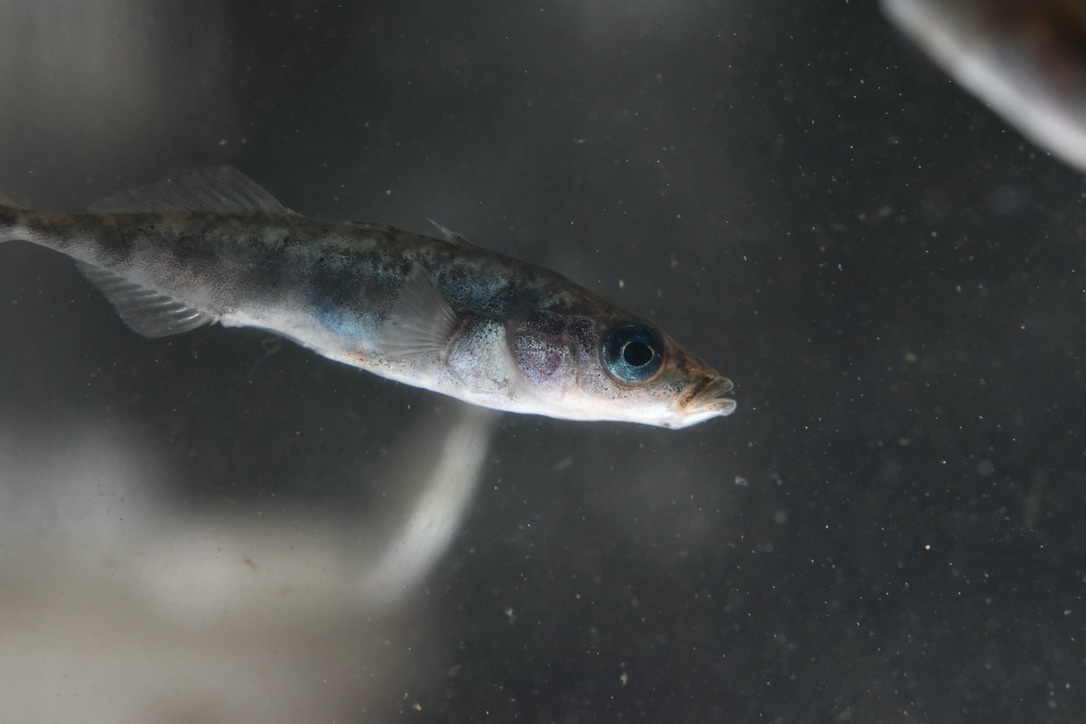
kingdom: Animalia
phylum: Chordata
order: Gasterosteiformes
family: Gasterosteidae
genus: Gasterosteus
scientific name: Gasterosteus aculeatus
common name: Three-spined stickleback
